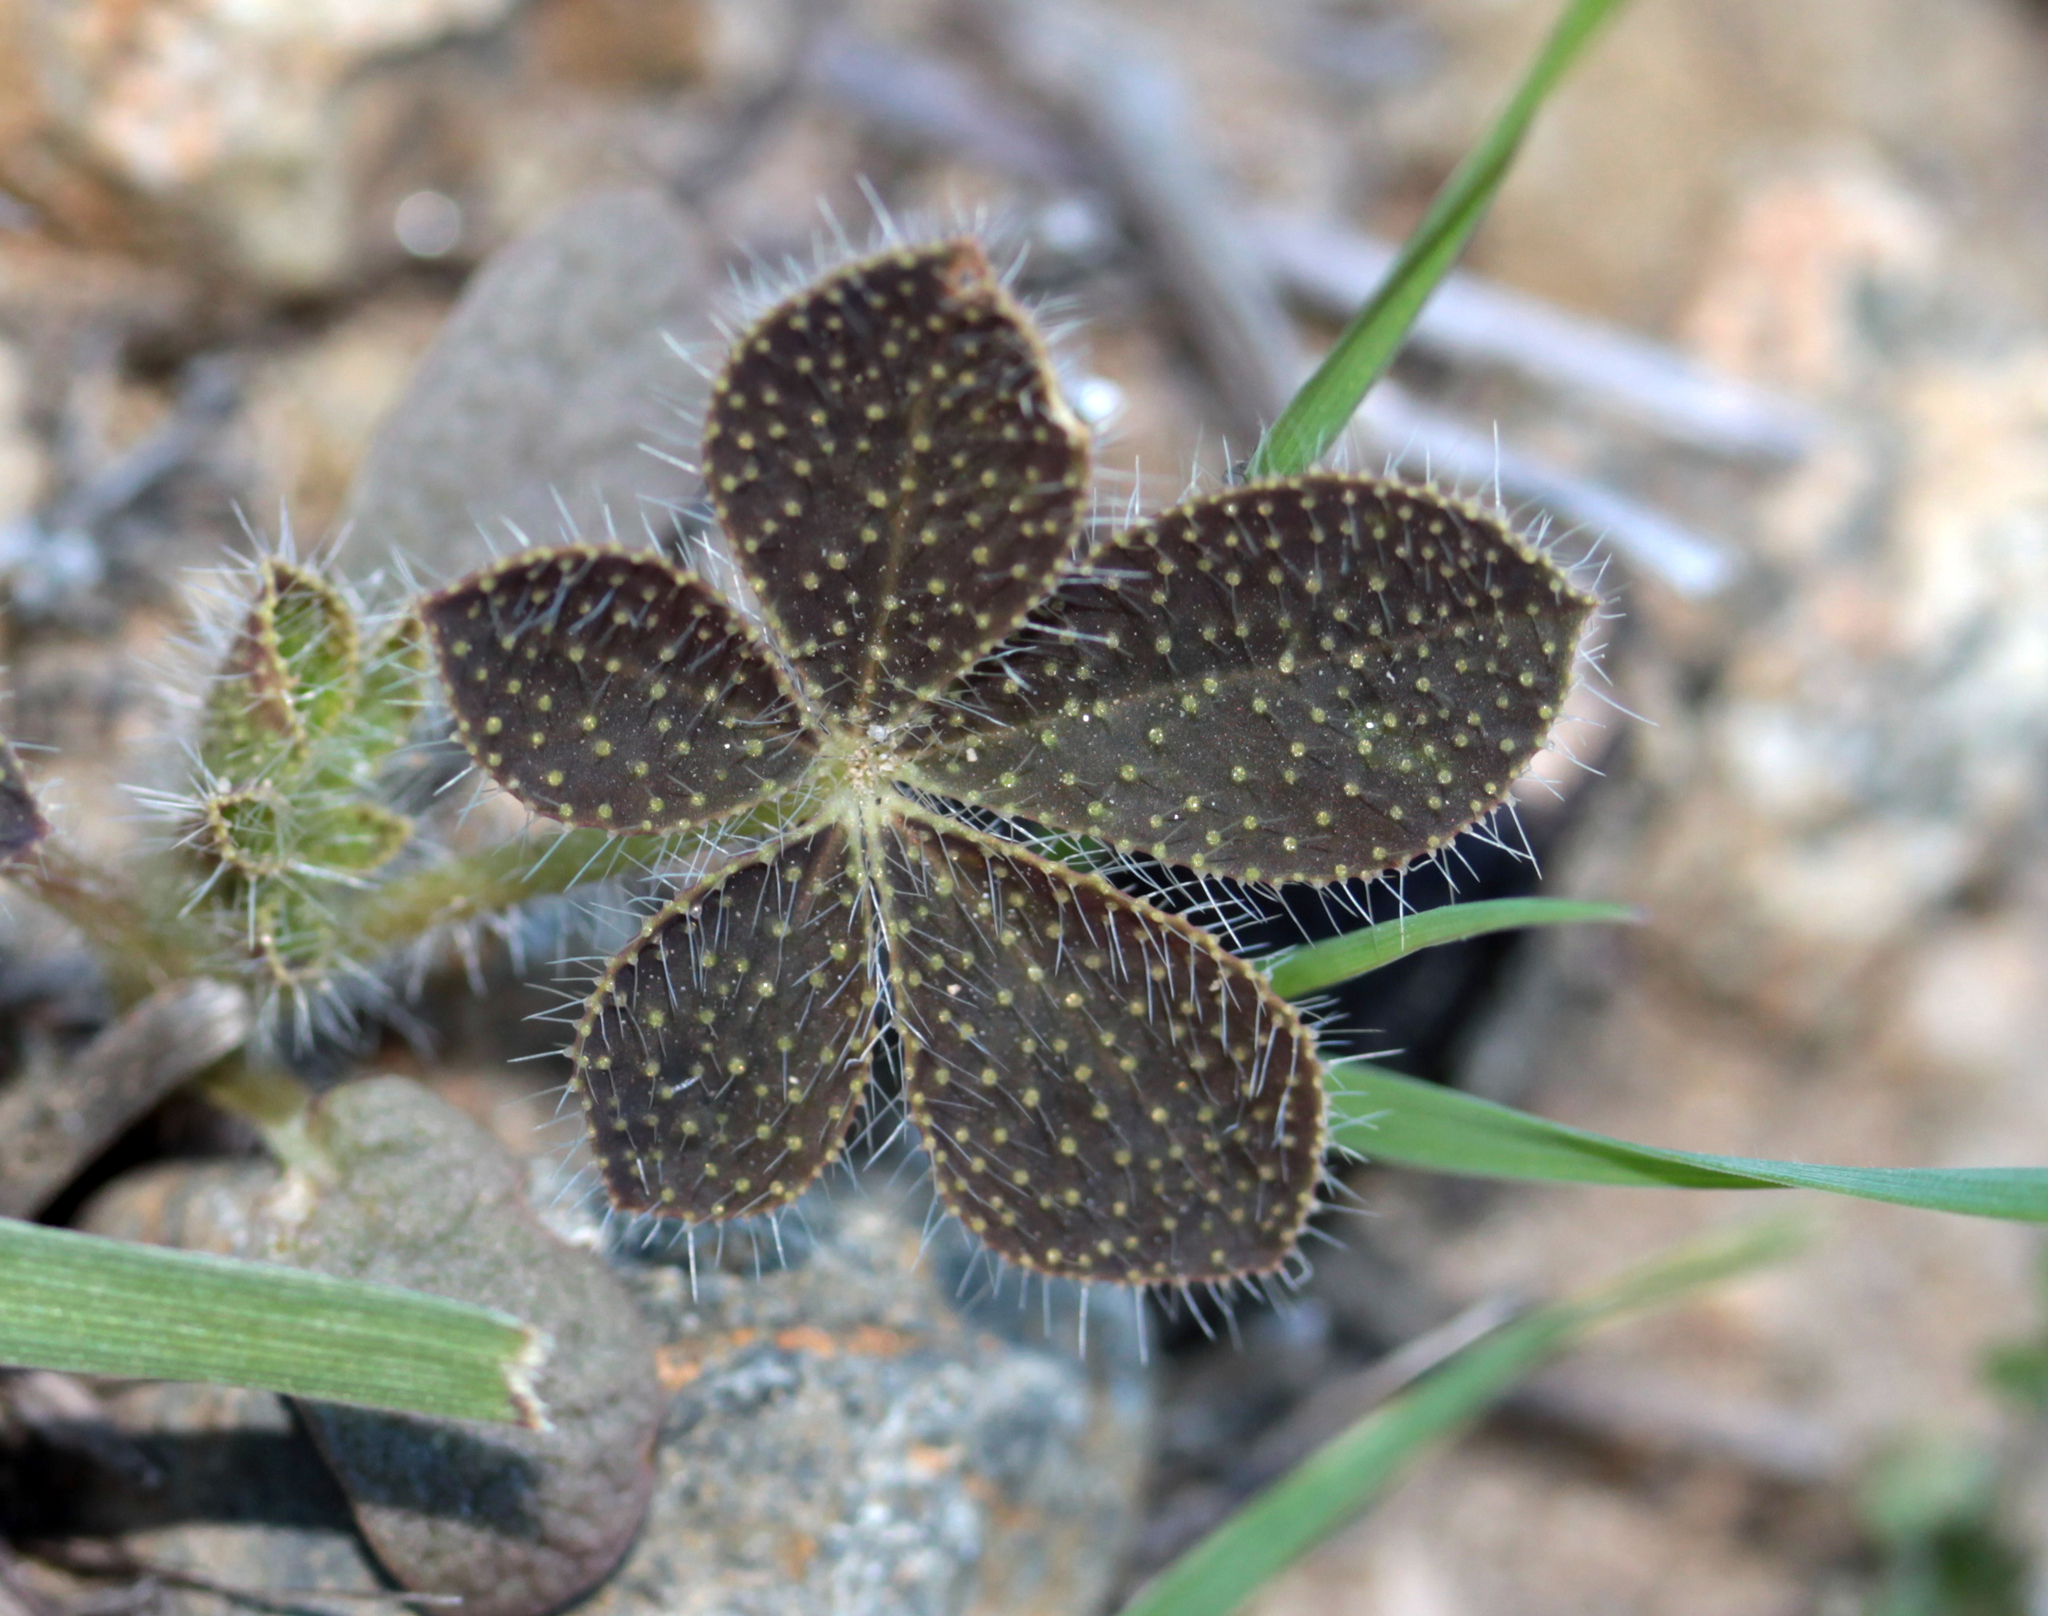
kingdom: Plantae
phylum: Tracheophyta
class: Magnoliopsida
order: Fabales
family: Fabaceae
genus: Lupinus
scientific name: Lupinus hirsutissimus
